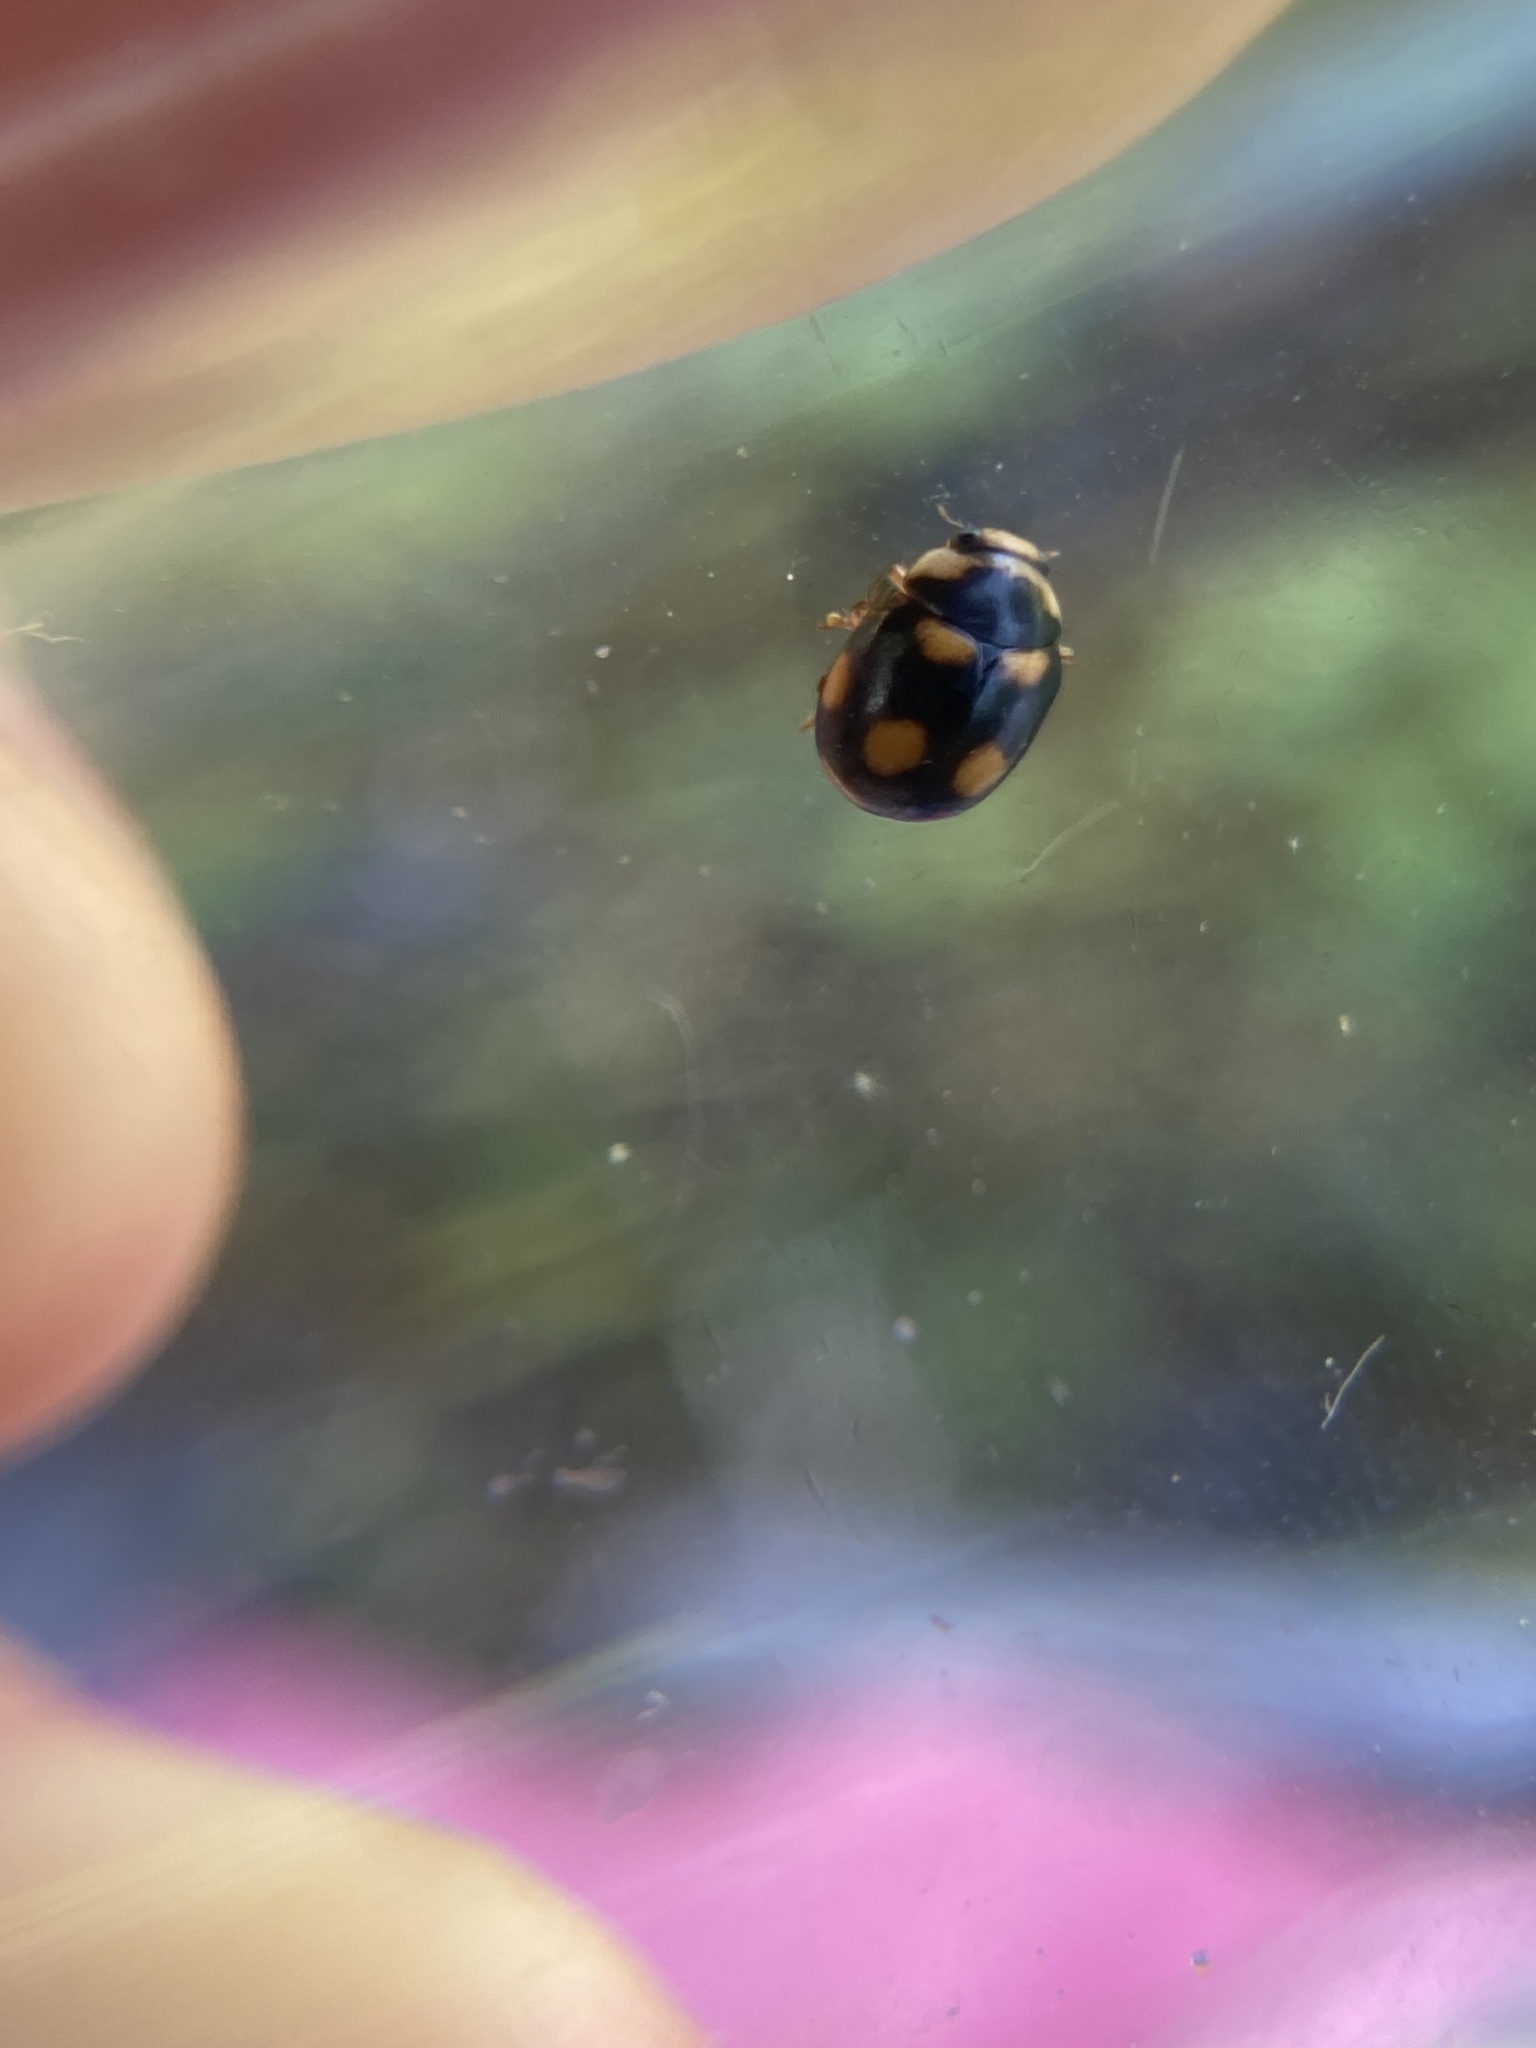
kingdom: Animalia
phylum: Arthropoda
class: Insecta
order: Coleoptera
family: Coccinellidae
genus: Brachiacantha
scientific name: Brachiacantha ursina
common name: Ursine spurleg lady beetle
